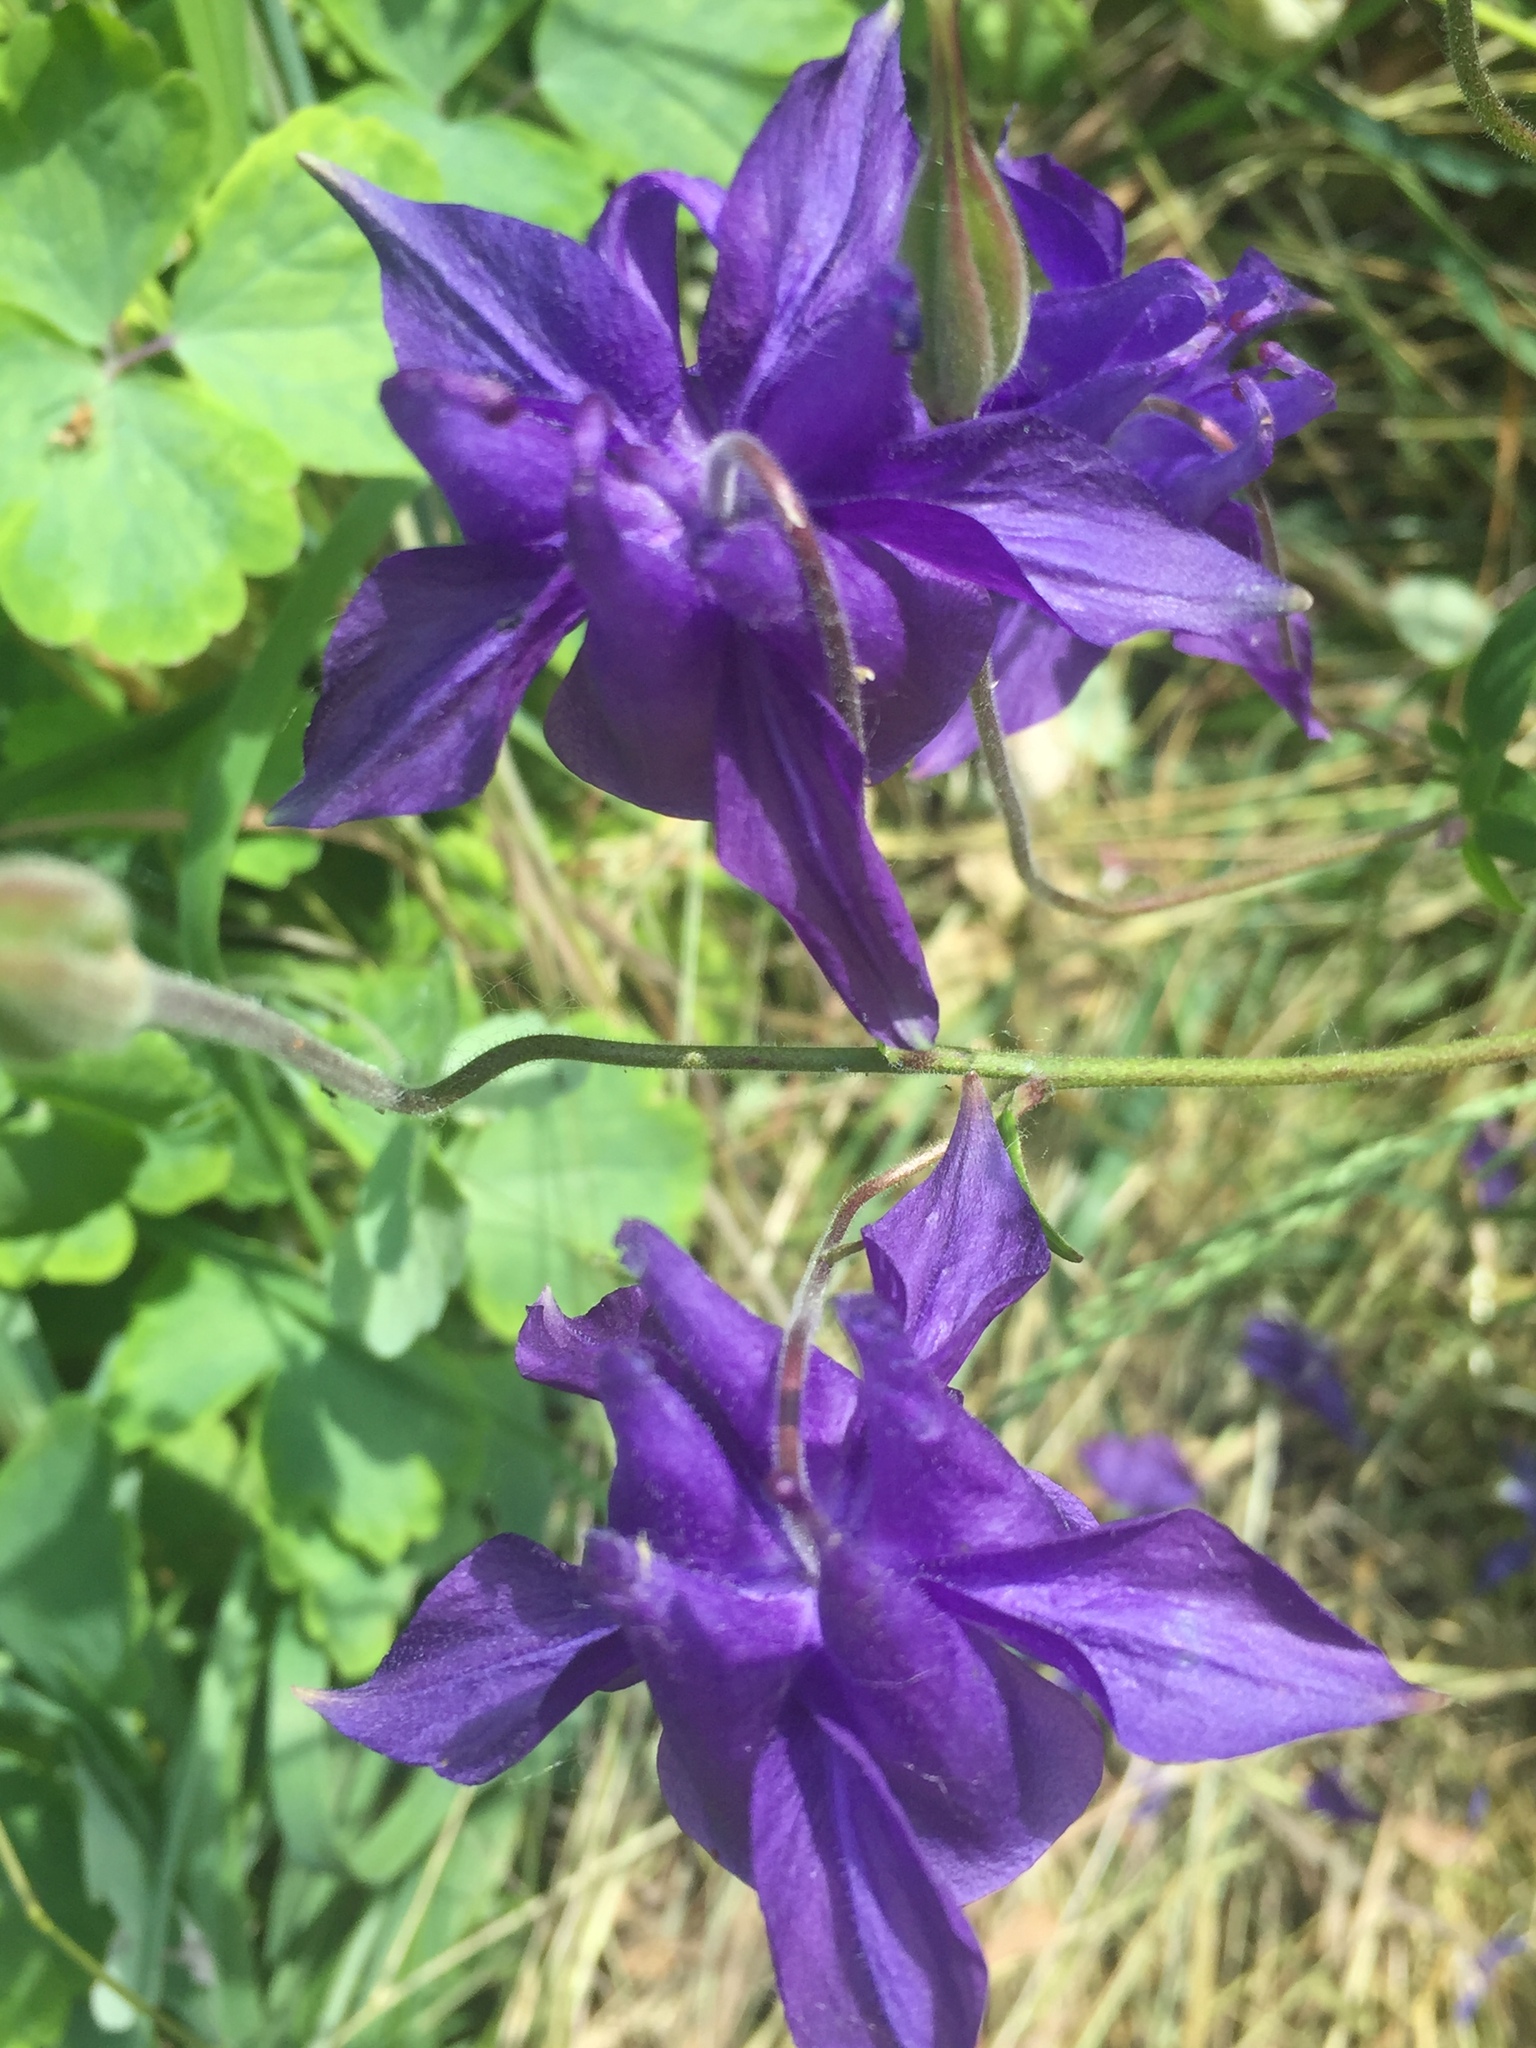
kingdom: Plantae
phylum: Tracheophyta
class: Magnoliopsida
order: Ranunculales
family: Ranunculaceae
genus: Aquilegia
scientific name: Aquilegia vulgaris
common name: Columbine
